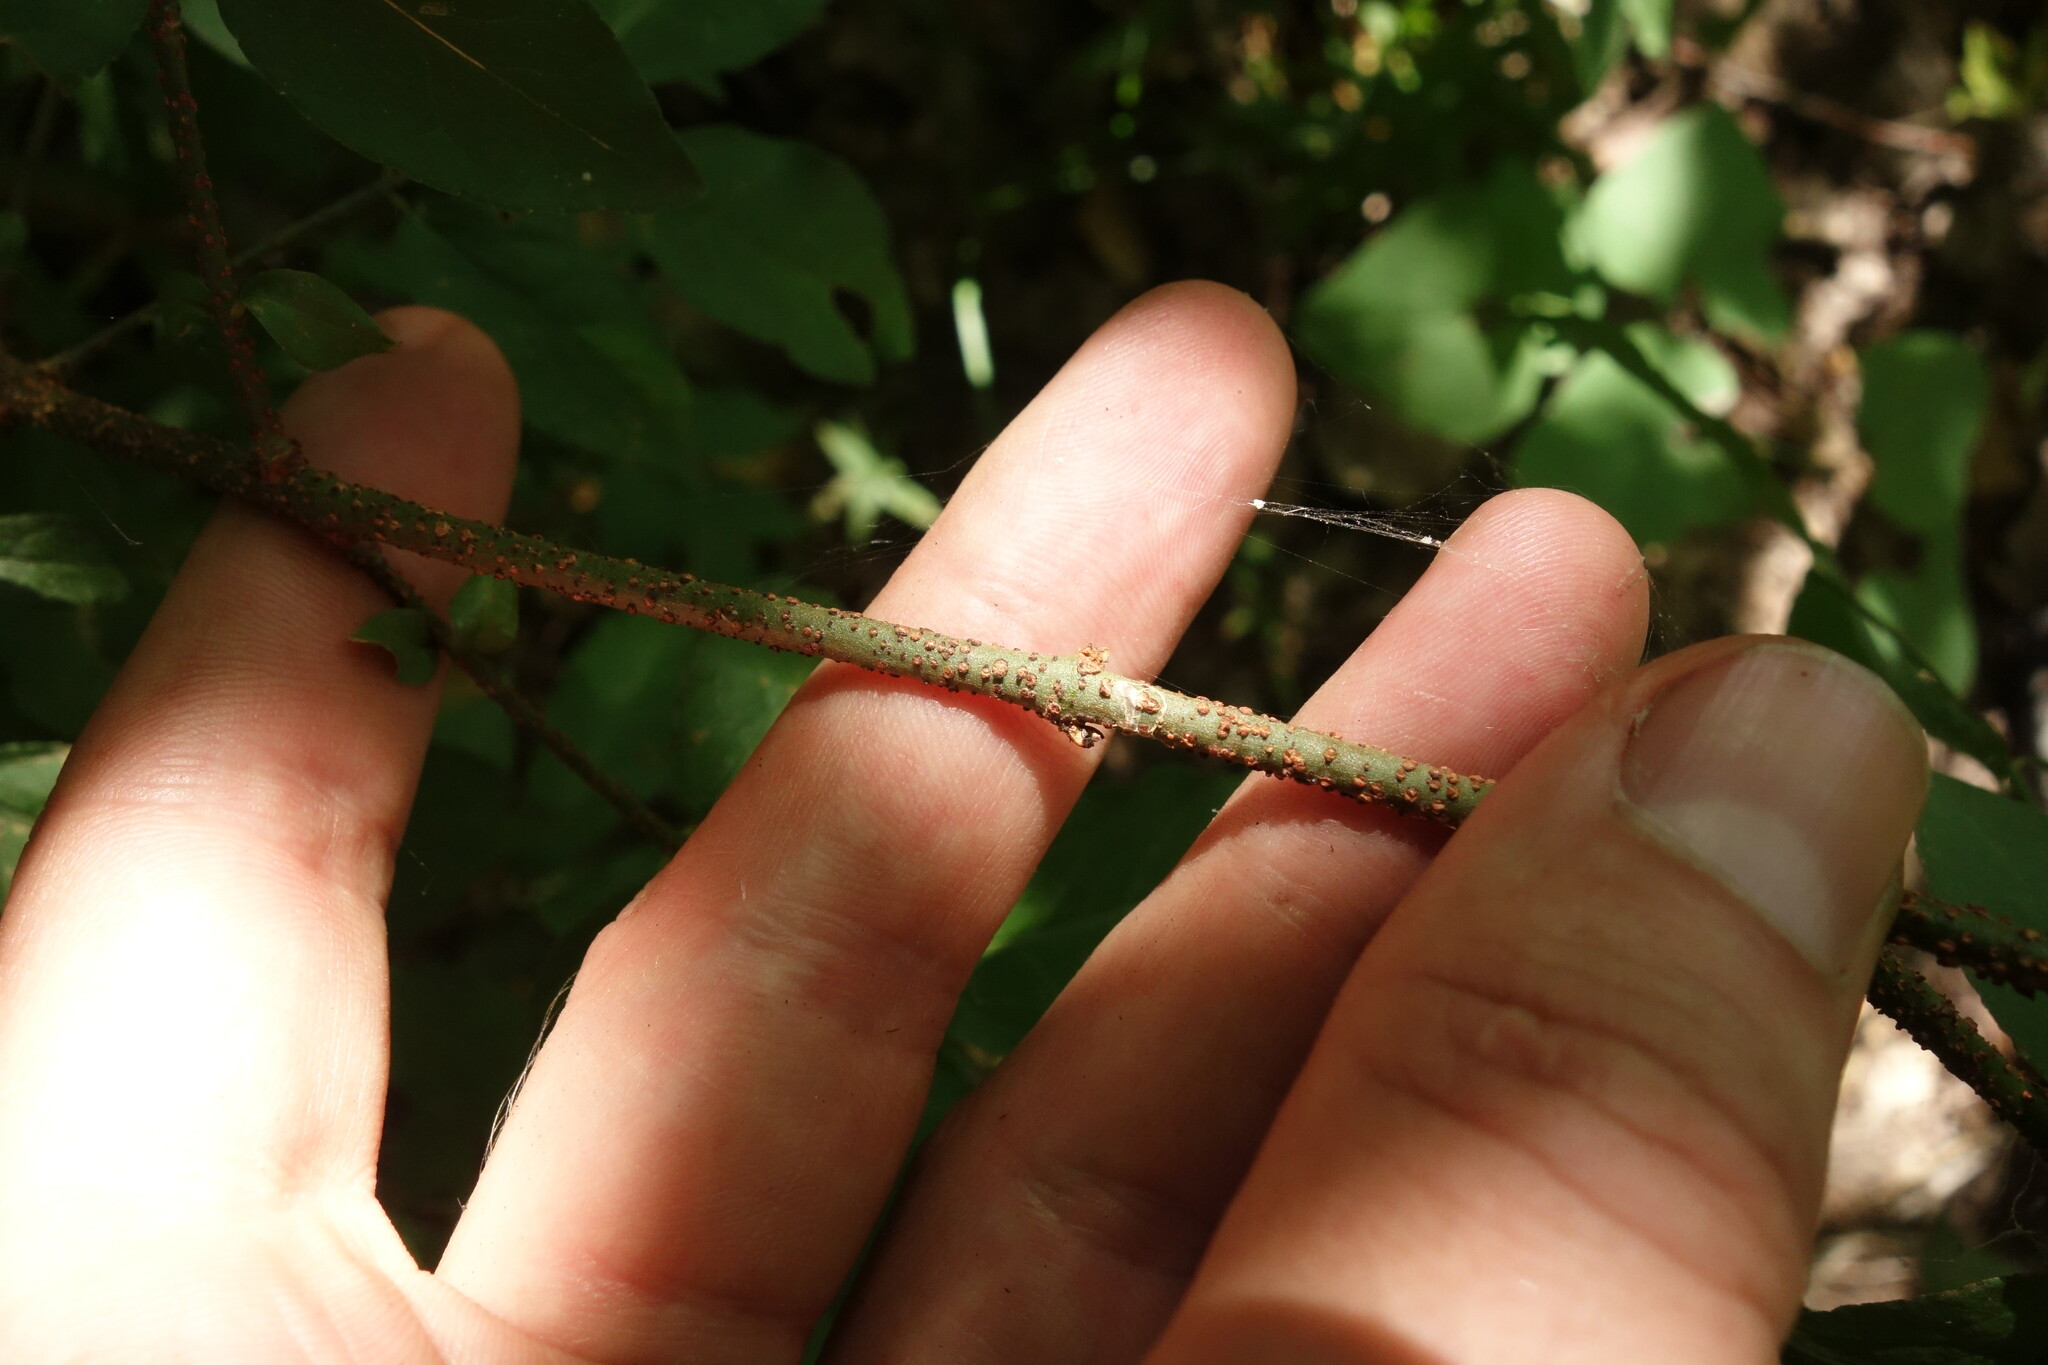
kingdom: Plantae
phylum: Tracheophyta
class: Magnoliopsida
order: Celastrales
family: Celastraceae
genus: Euonymus
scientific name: Euonymus verrucosus
